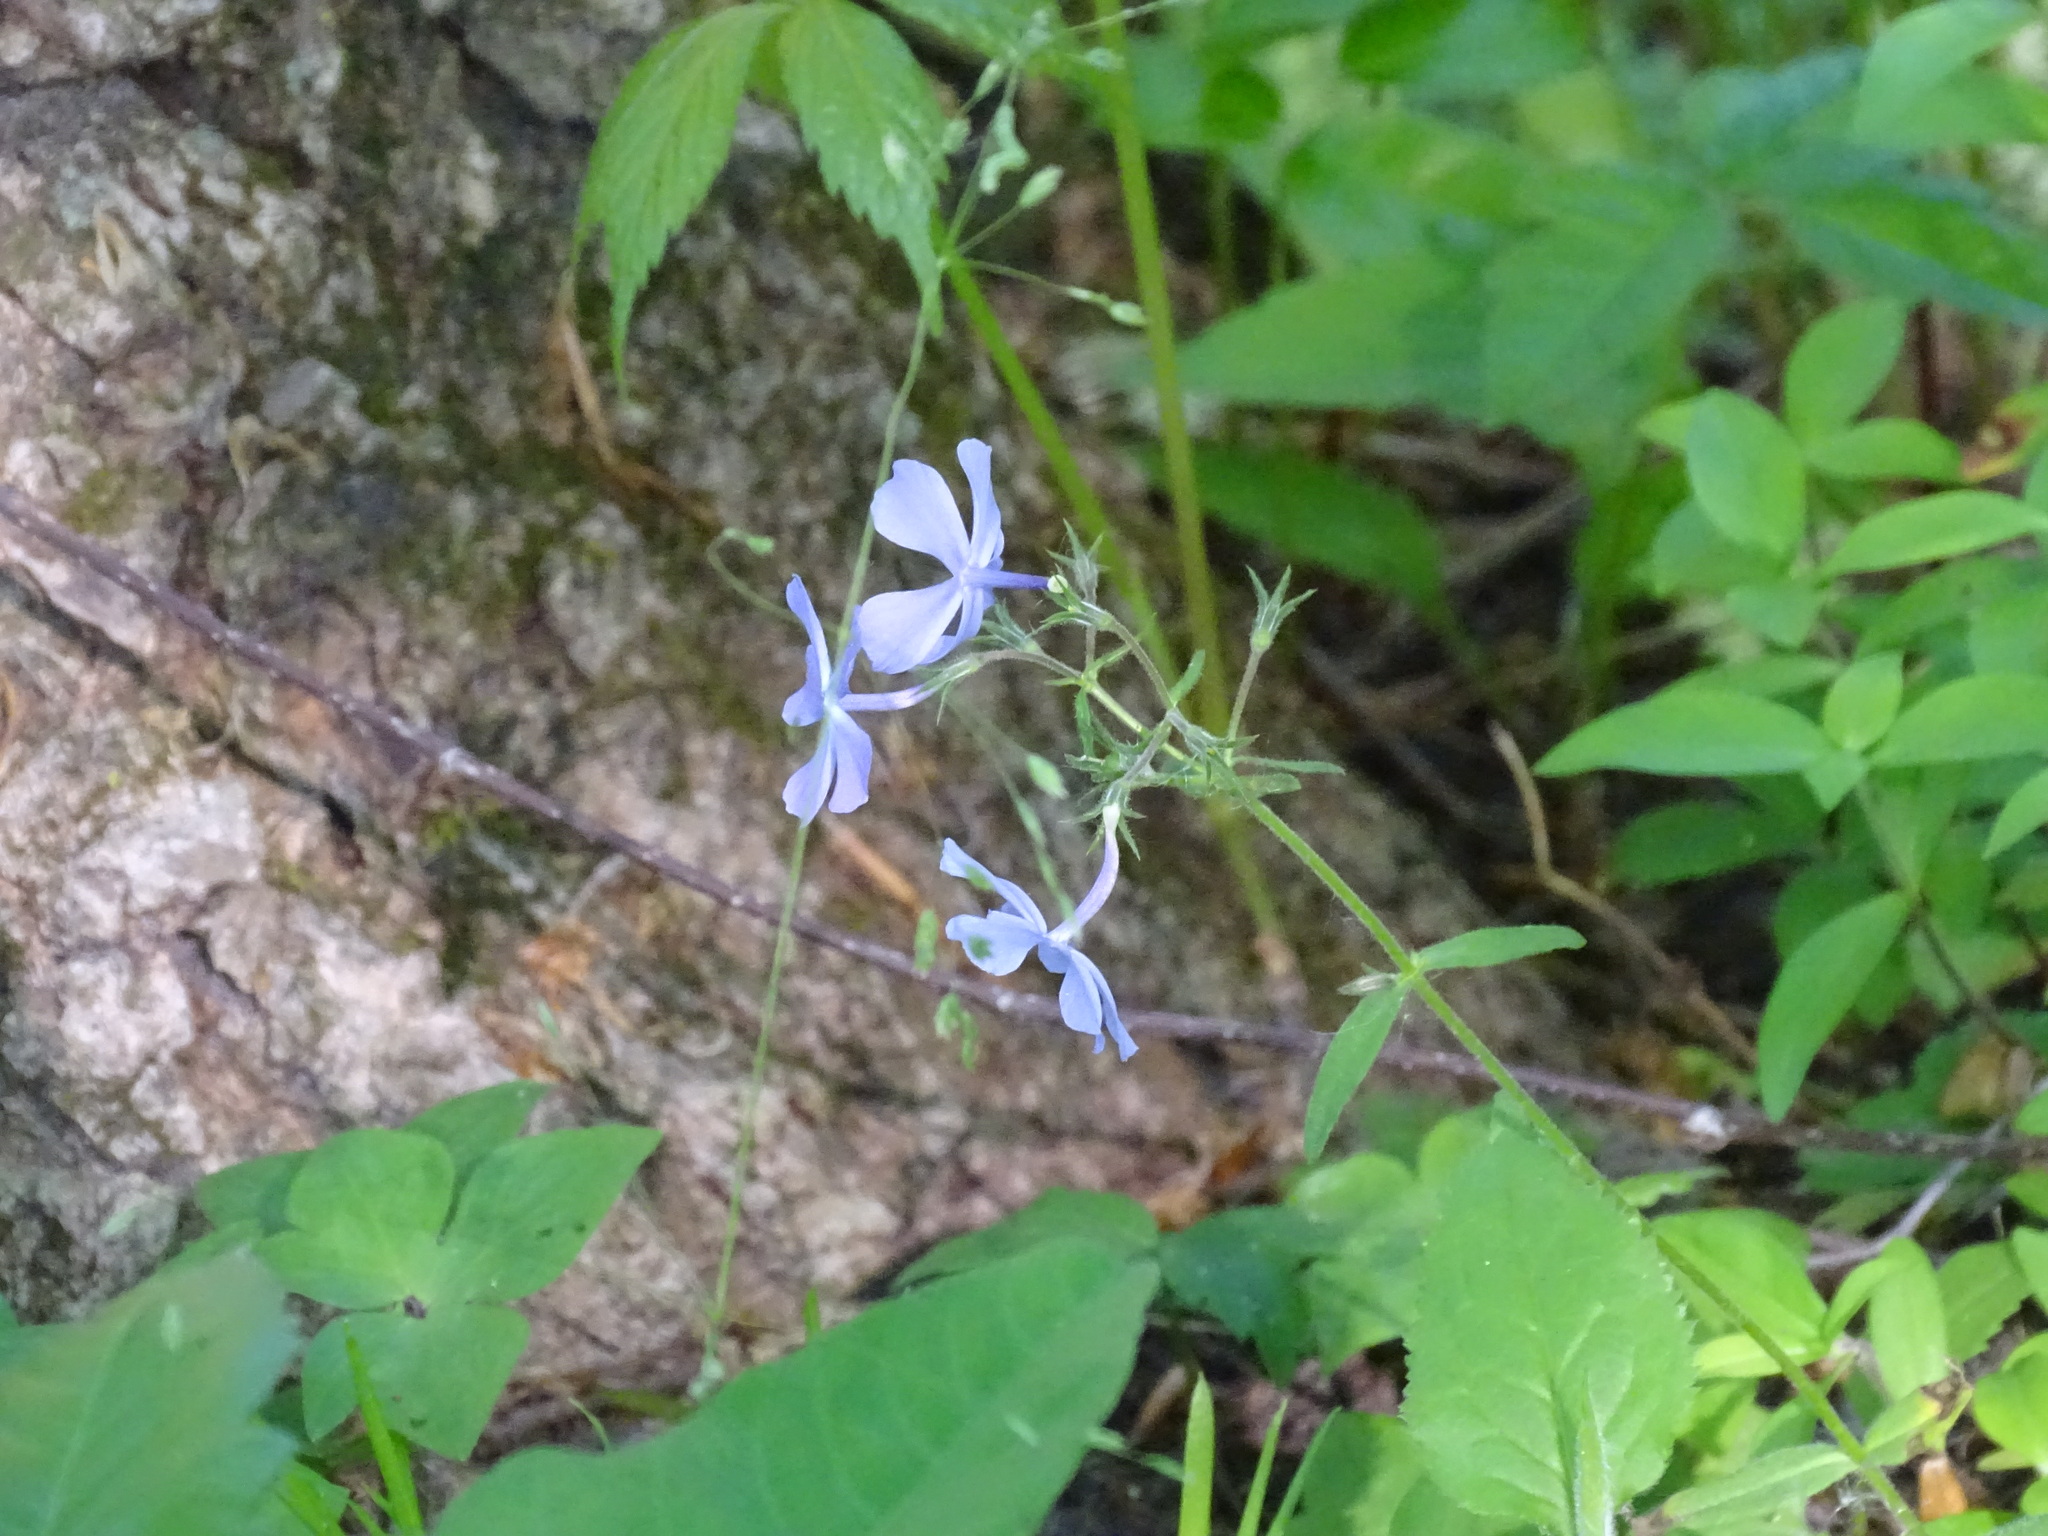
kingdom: Plantae
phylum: Tracheophyta
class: Magnoliopsida
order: Ericales
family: Polemoniaceae
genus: Phlox
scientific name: Phlox divaricata
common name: Blue phlox
